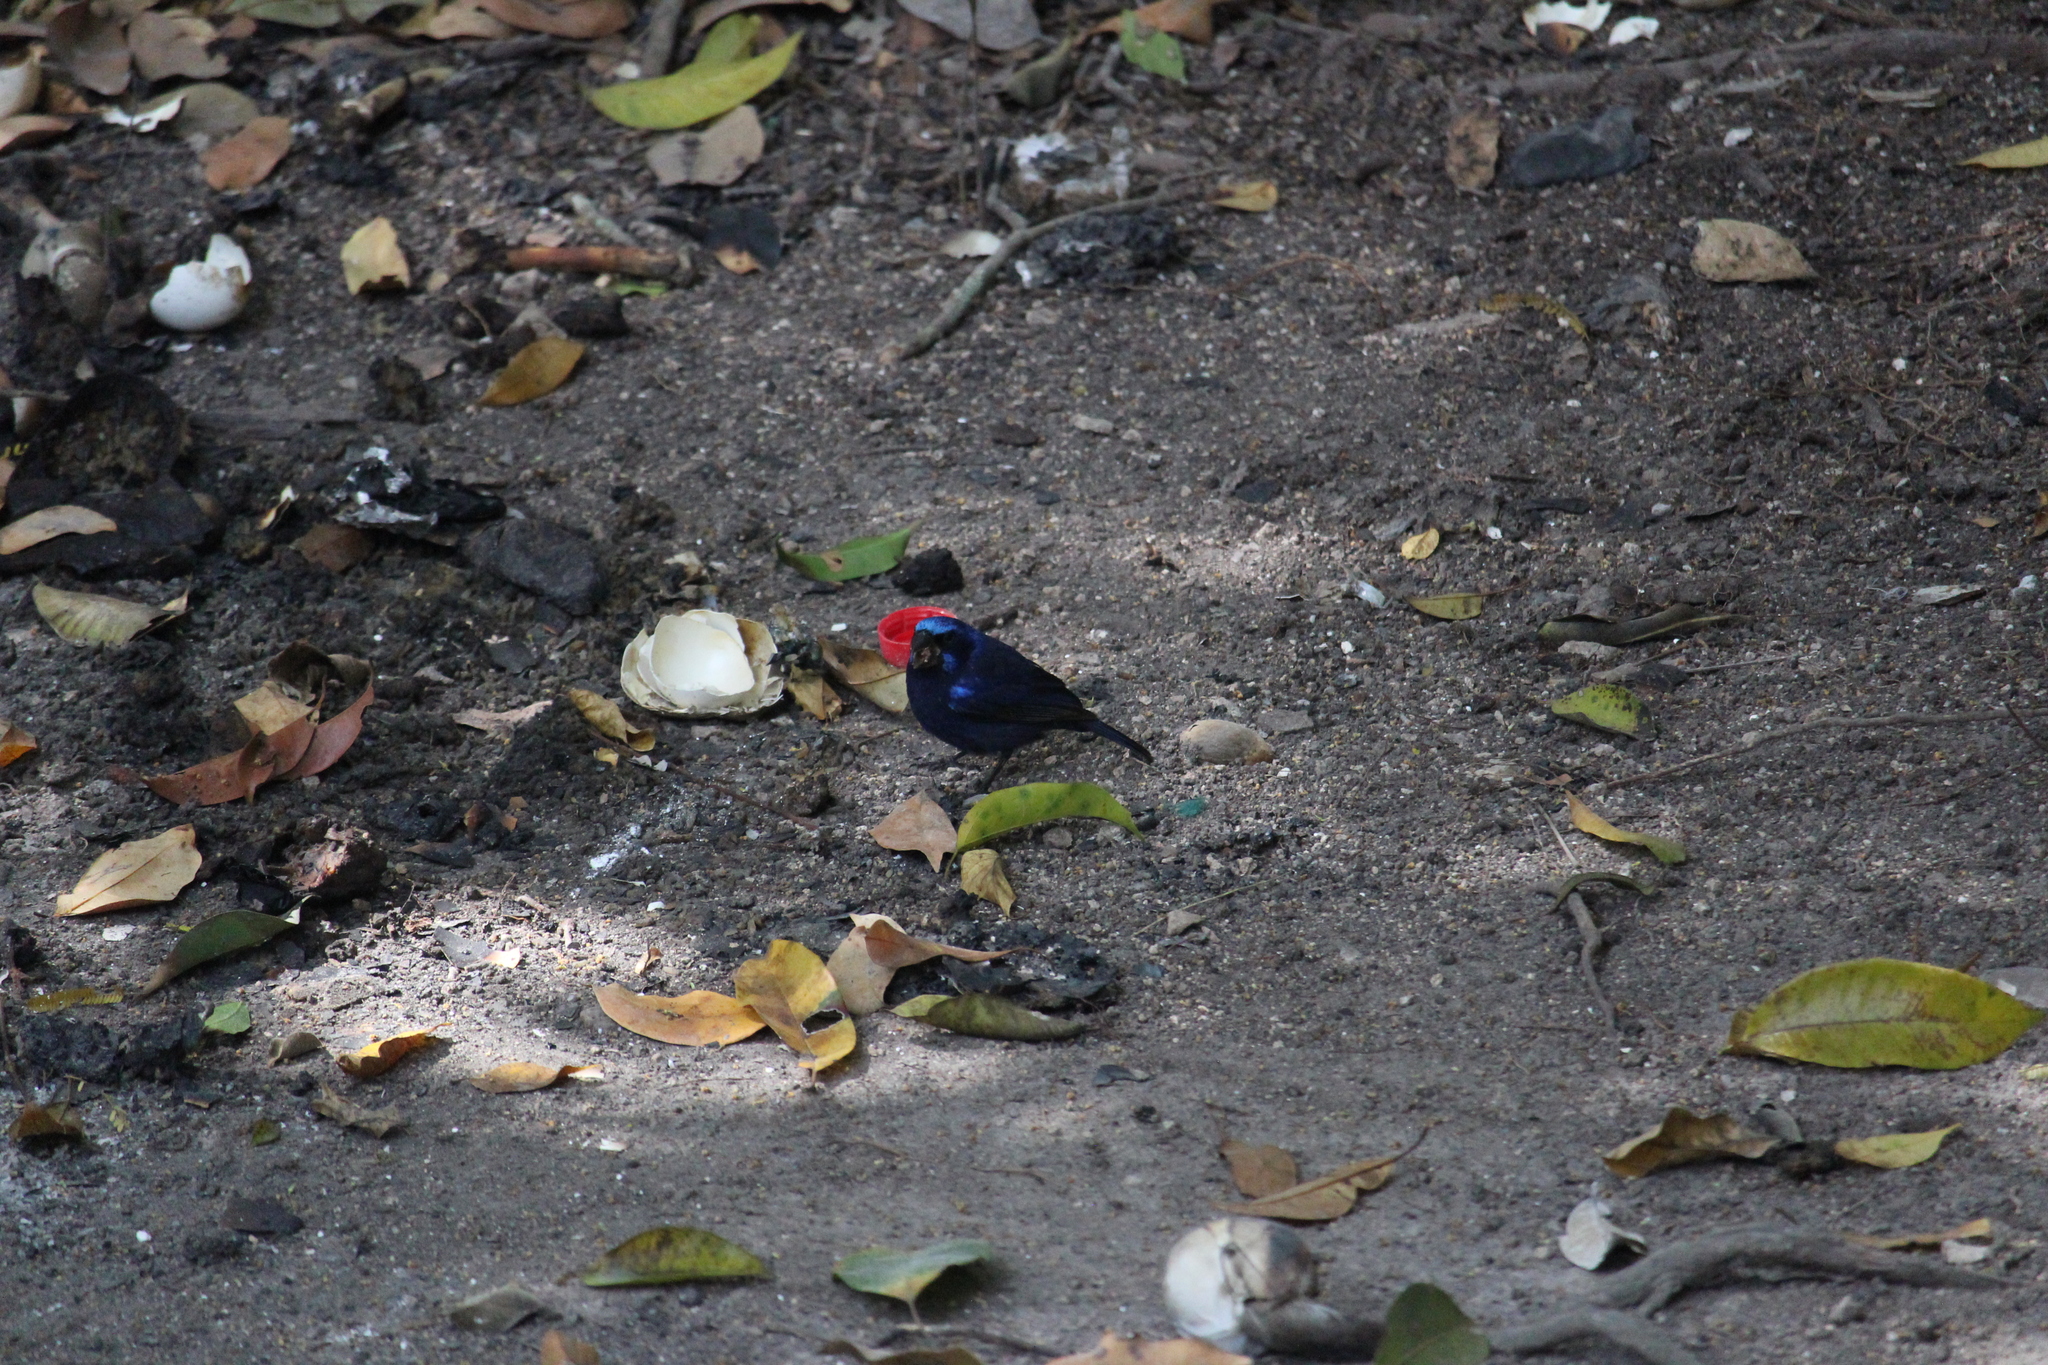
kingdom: Animalia
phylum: Chordata
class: Aves
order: Passeriformes
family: Cardinalidae
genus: Cyanocompsa
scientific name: Cyanocompsa parellina
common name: Blue bunting
